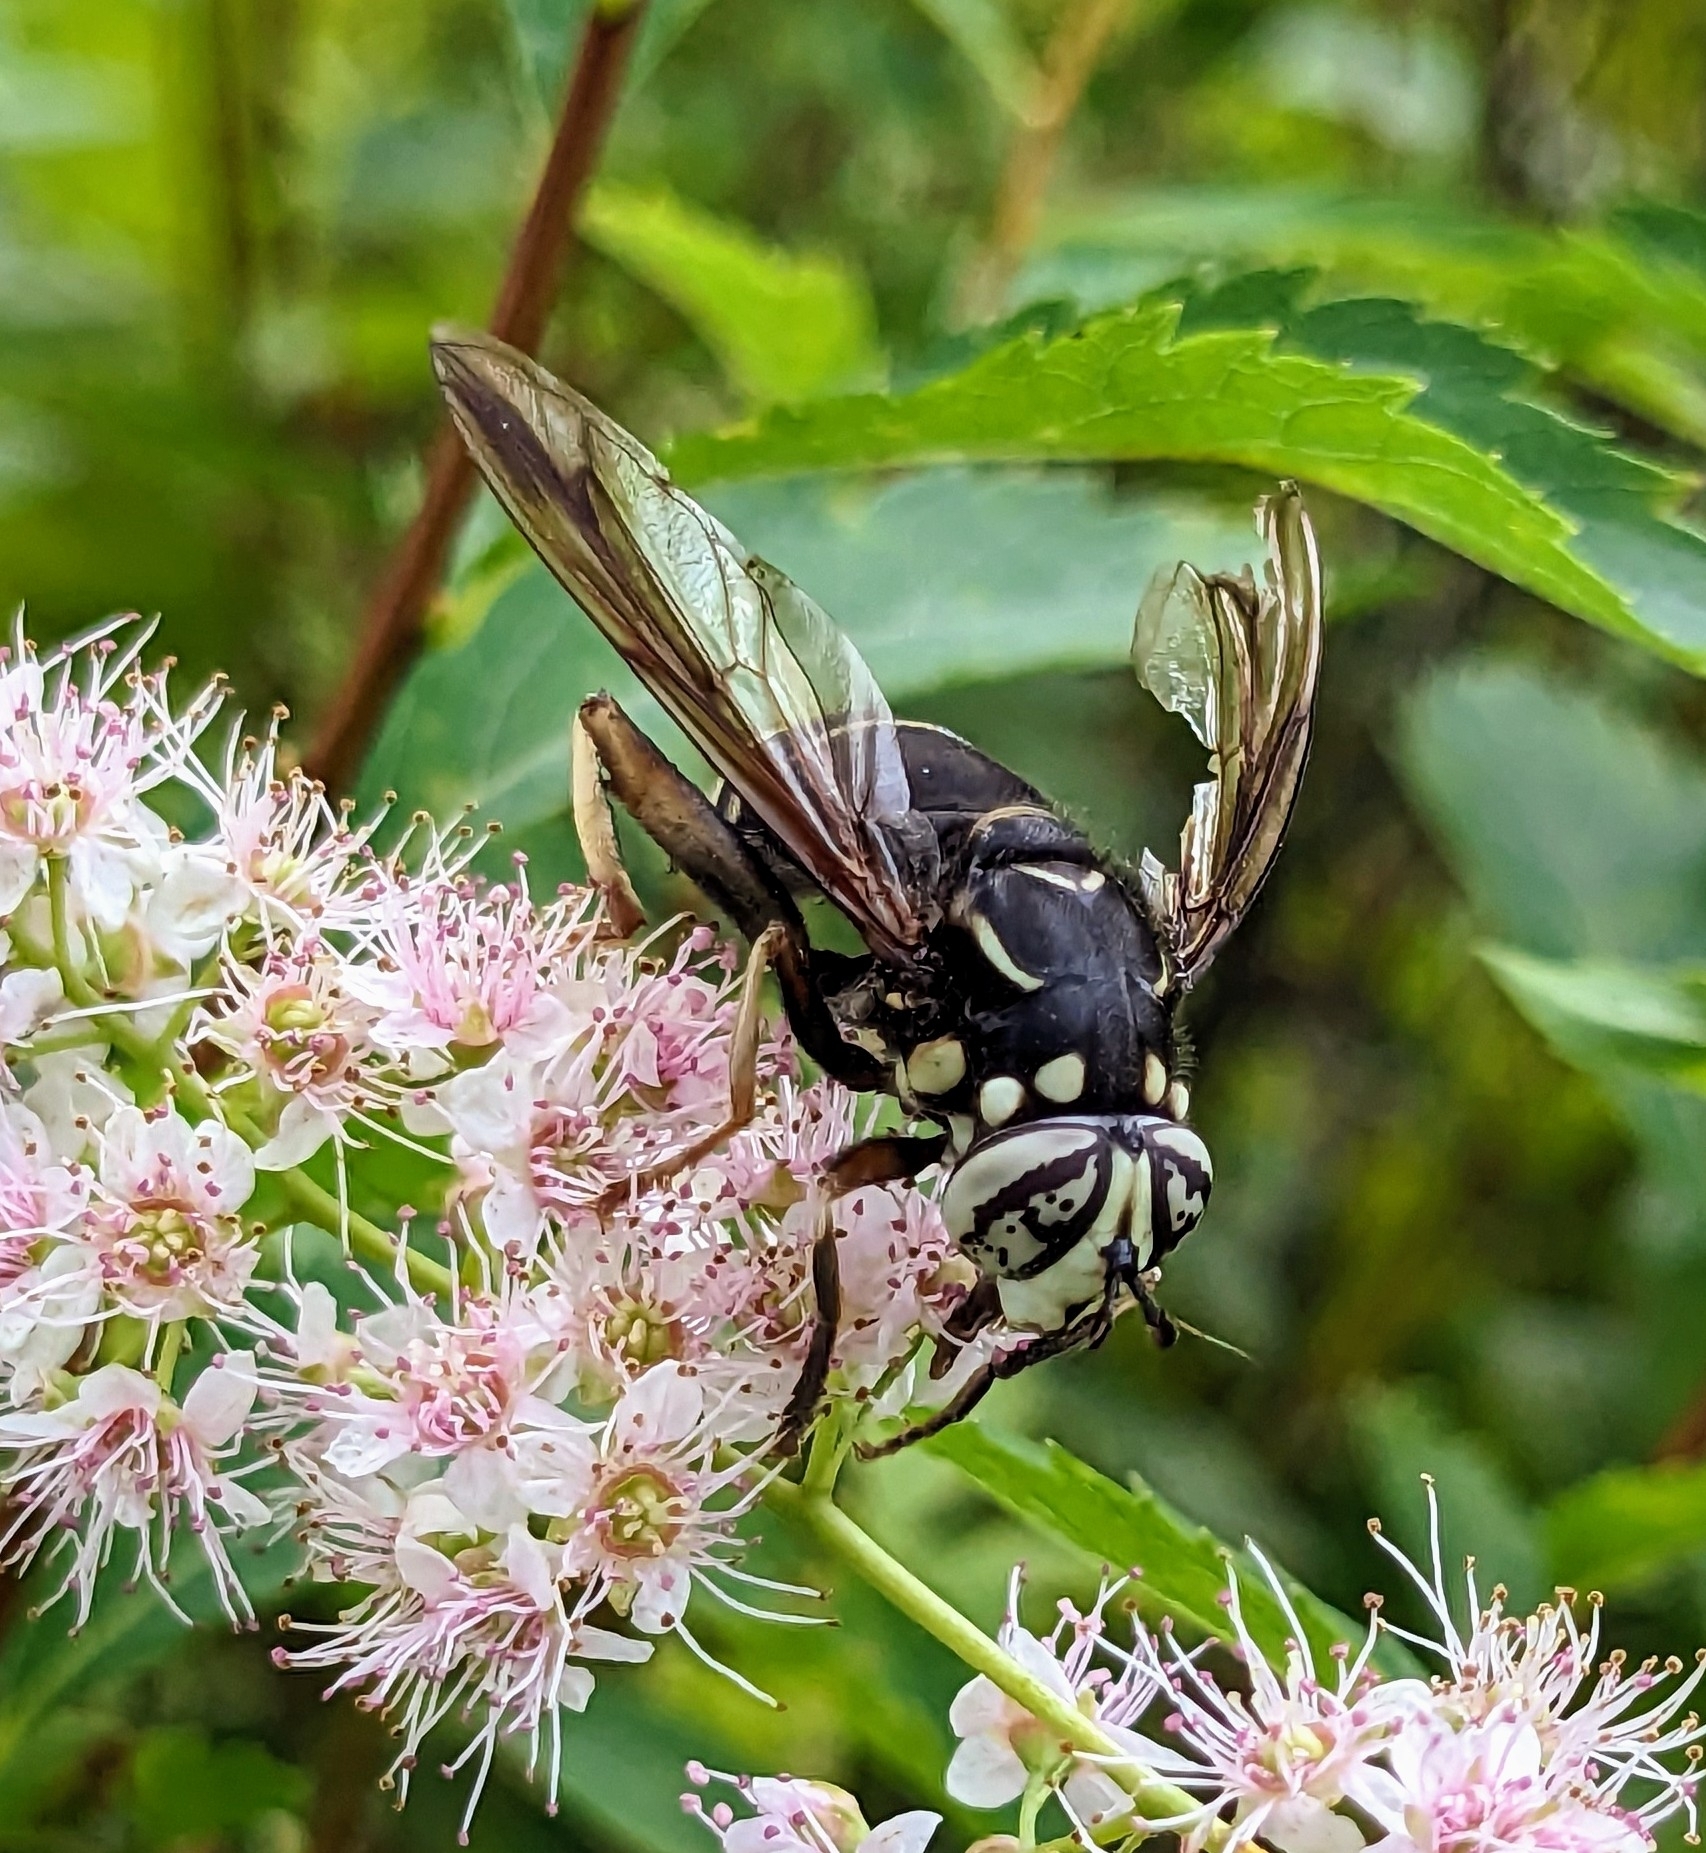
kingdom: Animalia
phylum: Arthropoda
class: Insecta
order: Diptera
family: Syrphidae
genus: Spilomyia
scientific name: Spilomyia fusca
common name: Bald-faced hornet fly
